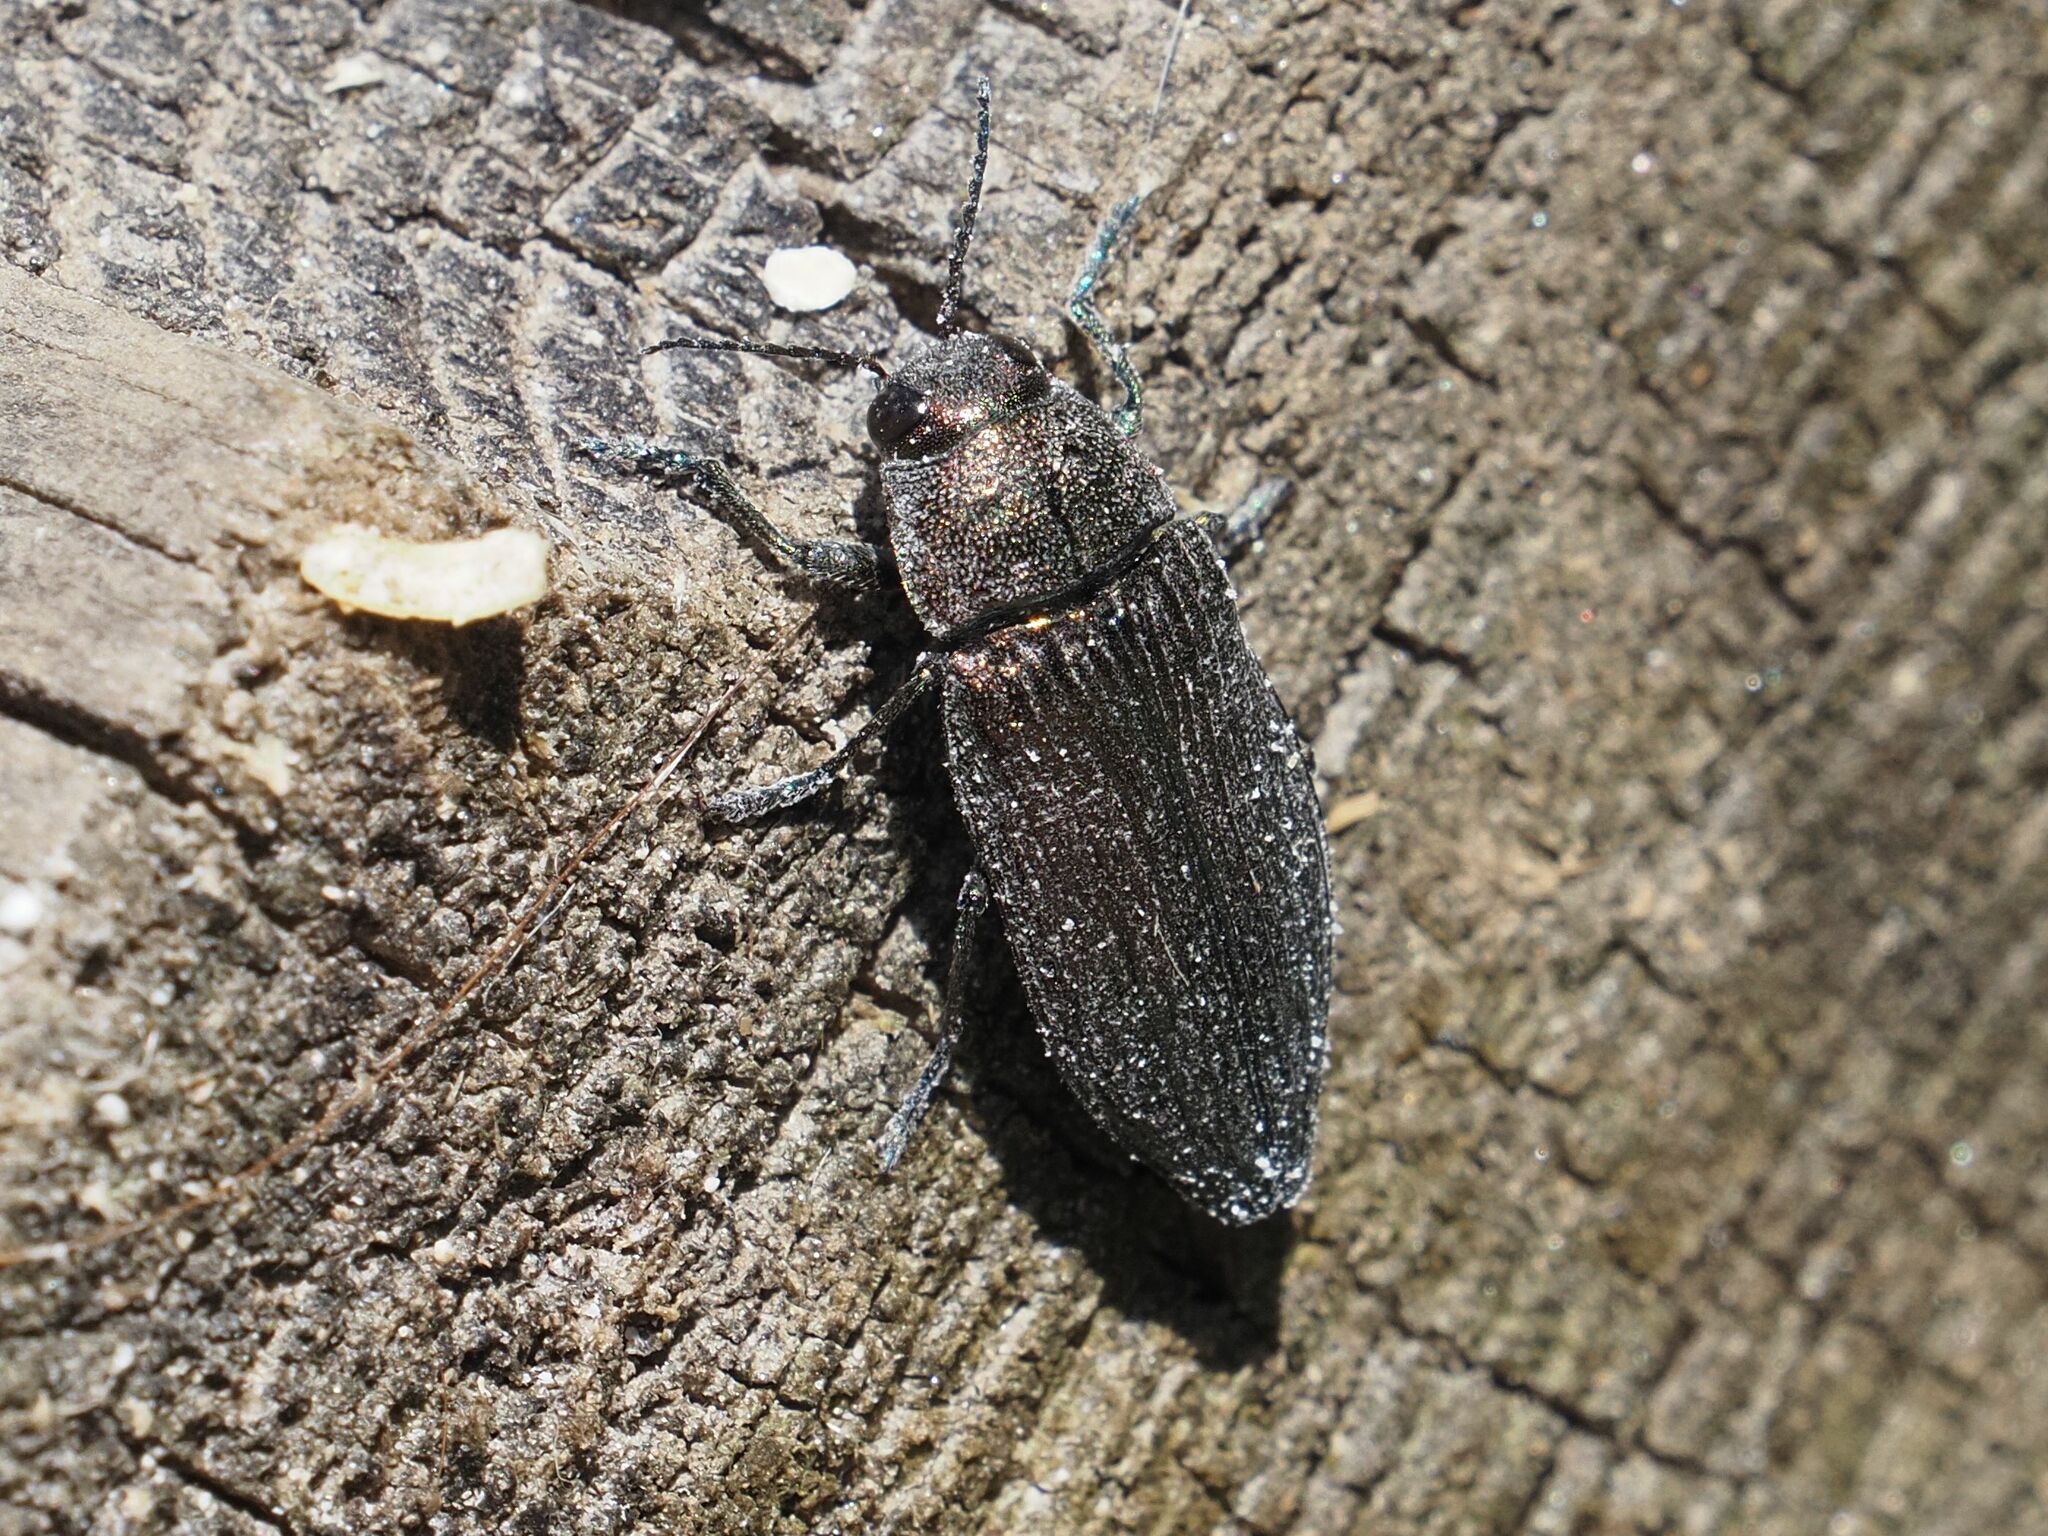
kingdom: Animalia
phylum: Arthropoda
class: Insecta
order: Coleoptera
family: Buprestidae
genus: Buprestis
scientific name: Buprestis rustica
